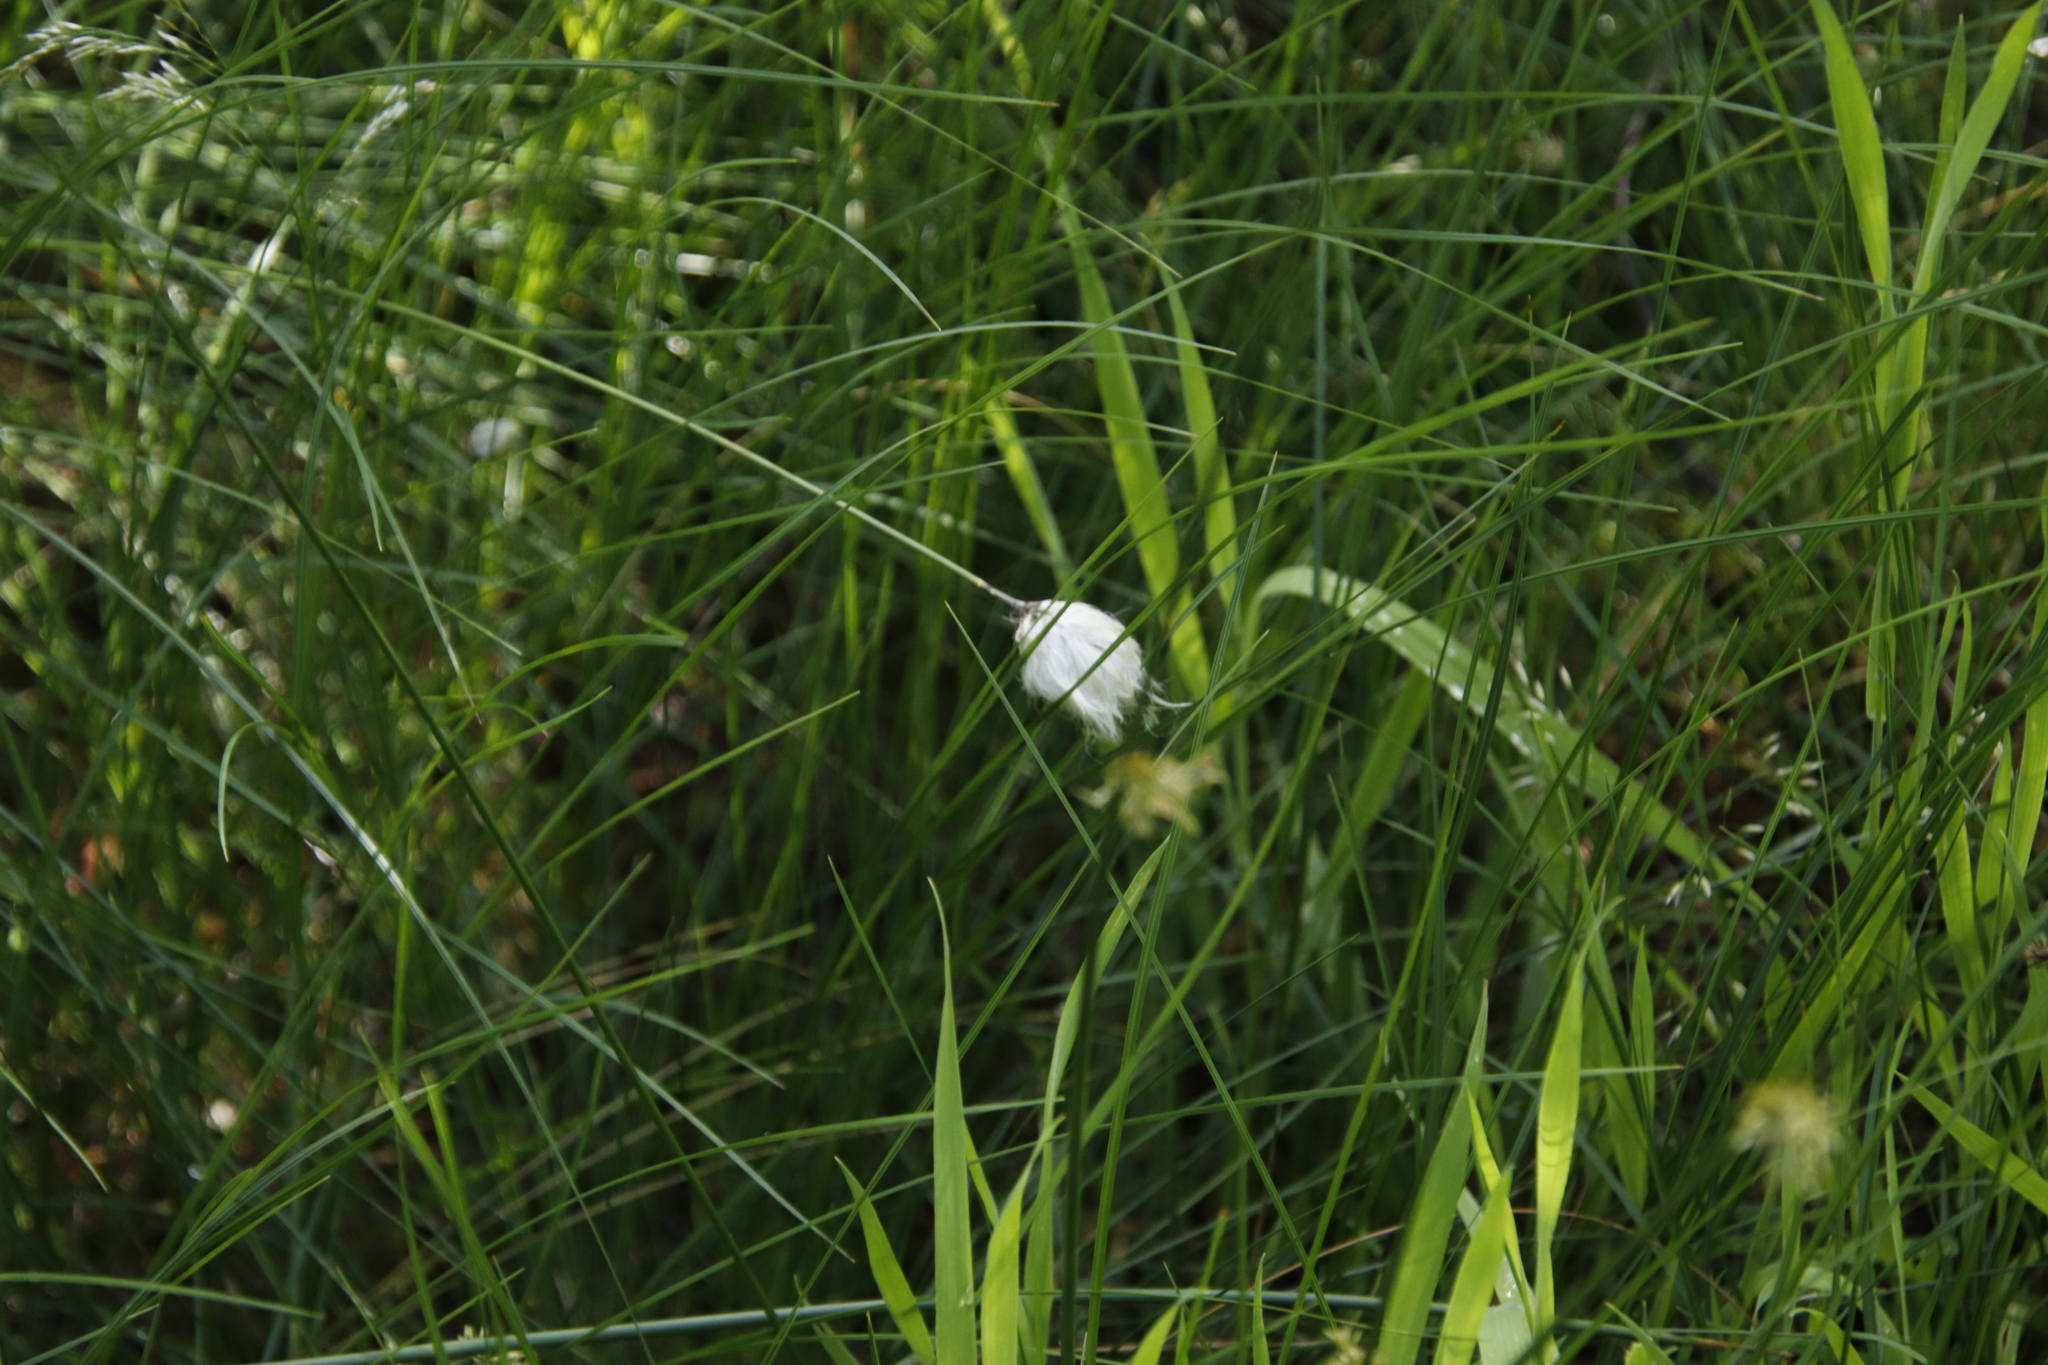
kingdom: Plantae
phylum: Tracheophyta
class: Liliopsida
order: Poales
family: Cyperaceae
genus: Eriophorum
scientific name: Eriophorum vaginatum
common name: Hare's-tail cottongrass
